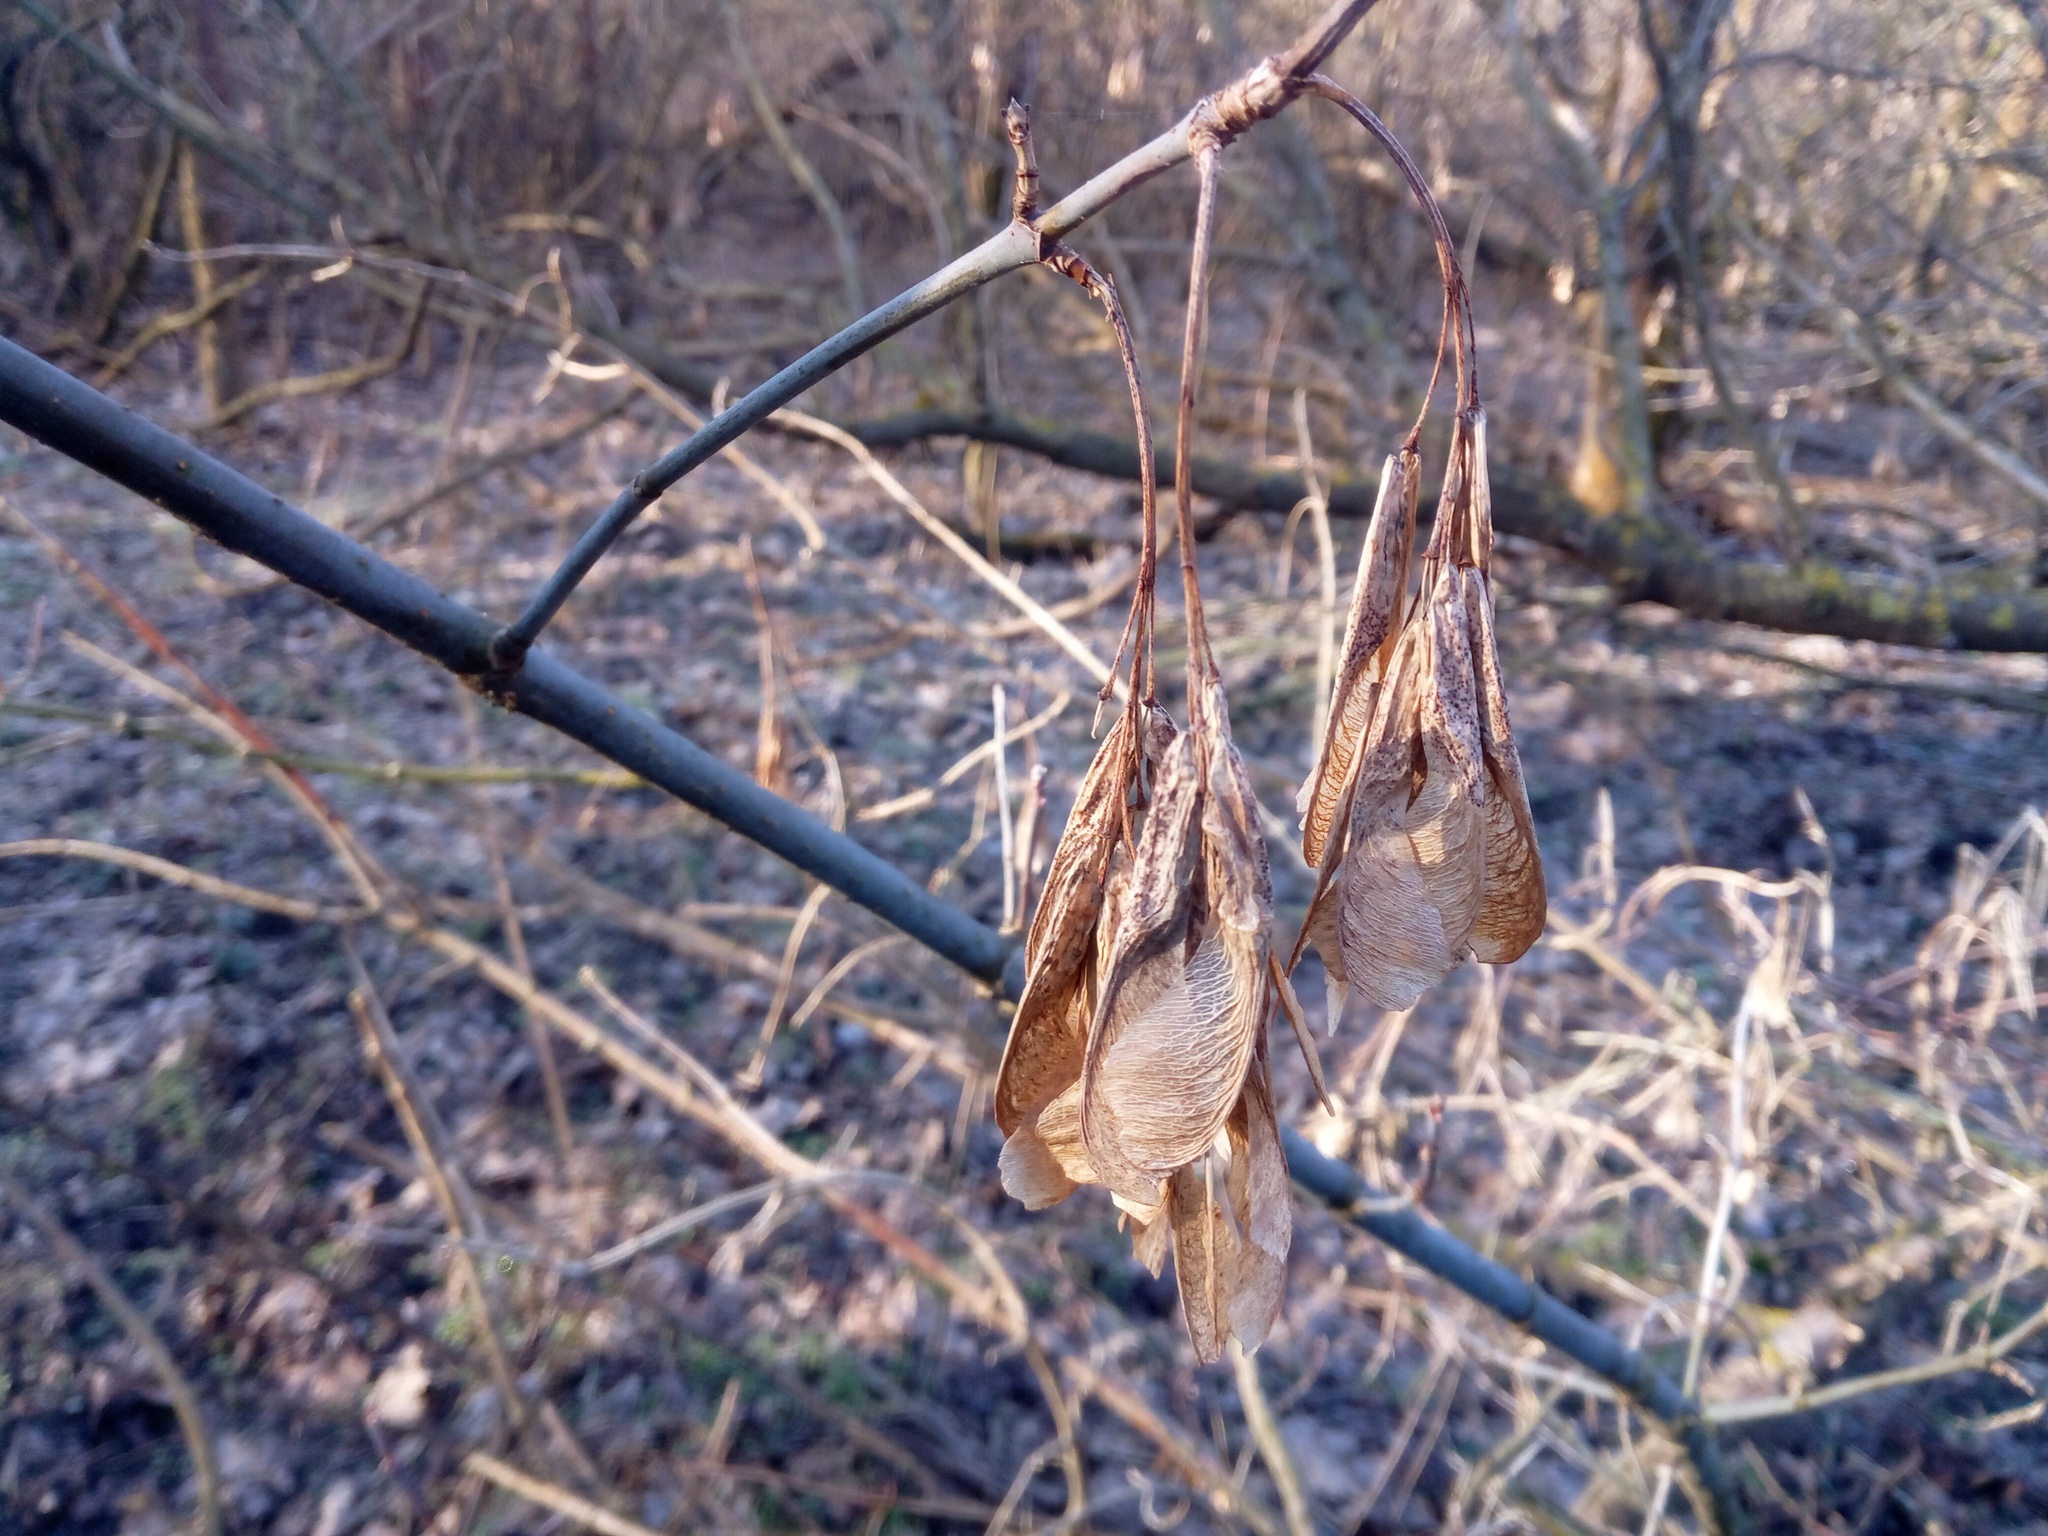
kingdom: Plantae
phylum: Tracheophyta
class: Magnoliopsida
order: Sapindales
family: Sapindaceae
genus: Acer
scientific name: Acer negundo
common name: Ashleaf maple
